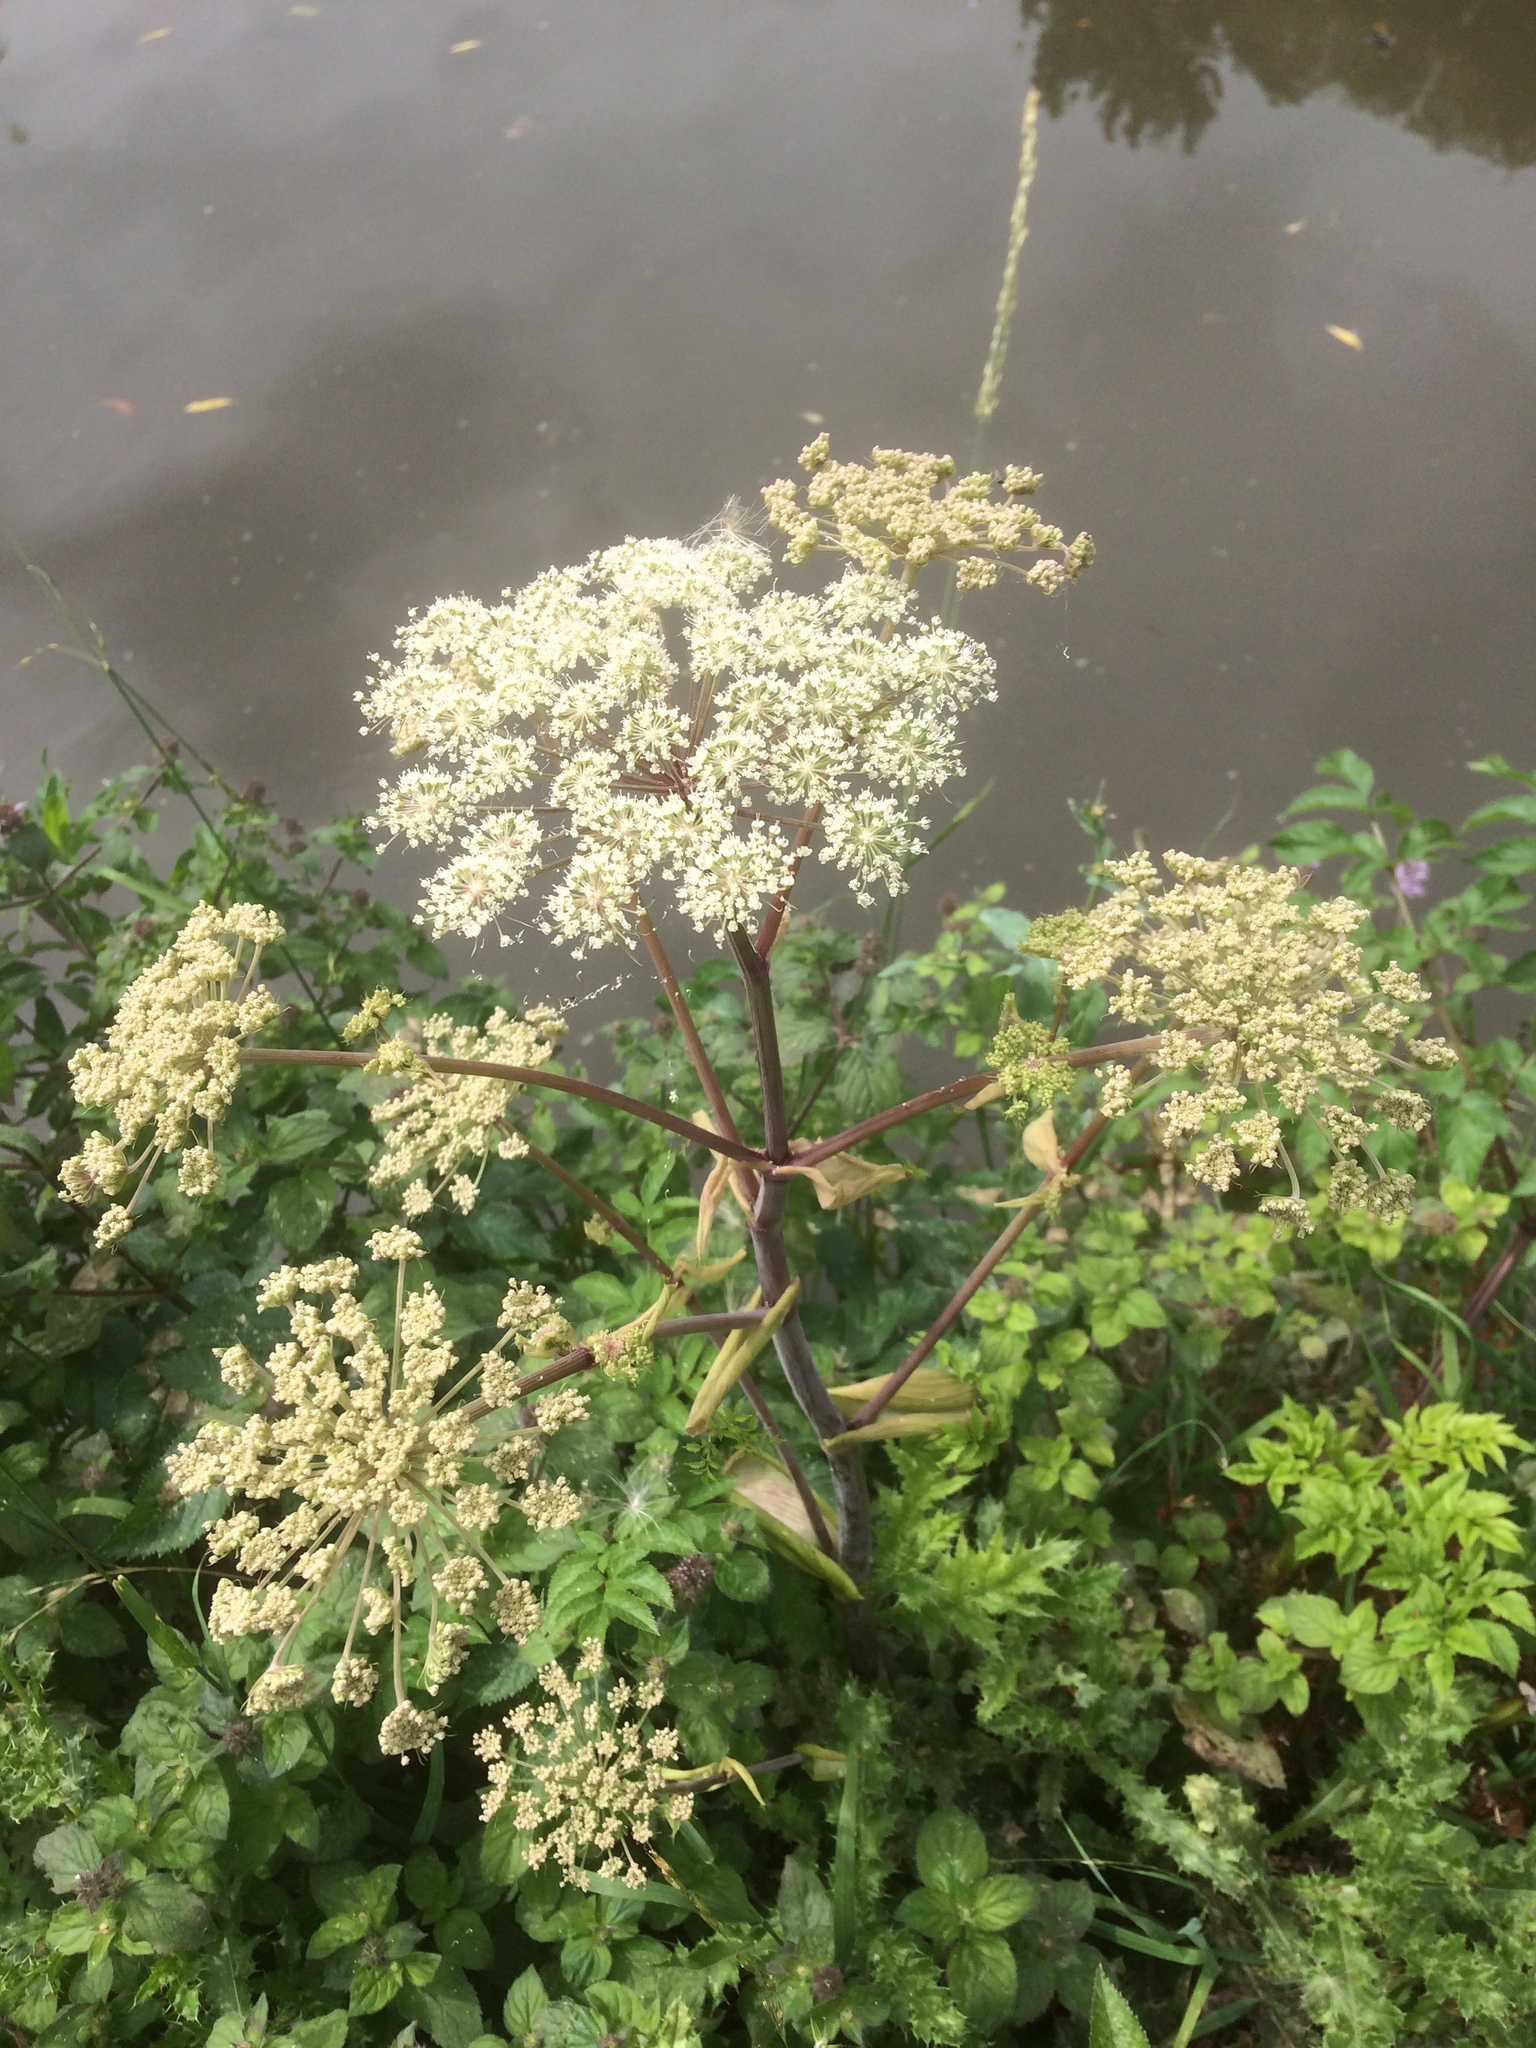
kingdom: Plantae
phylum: Tracheophyta
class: Magnoliopsida
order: Apiales
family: Apiaceae
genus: Angelica
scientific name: Angelica sylvestris
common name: Wild angelica
